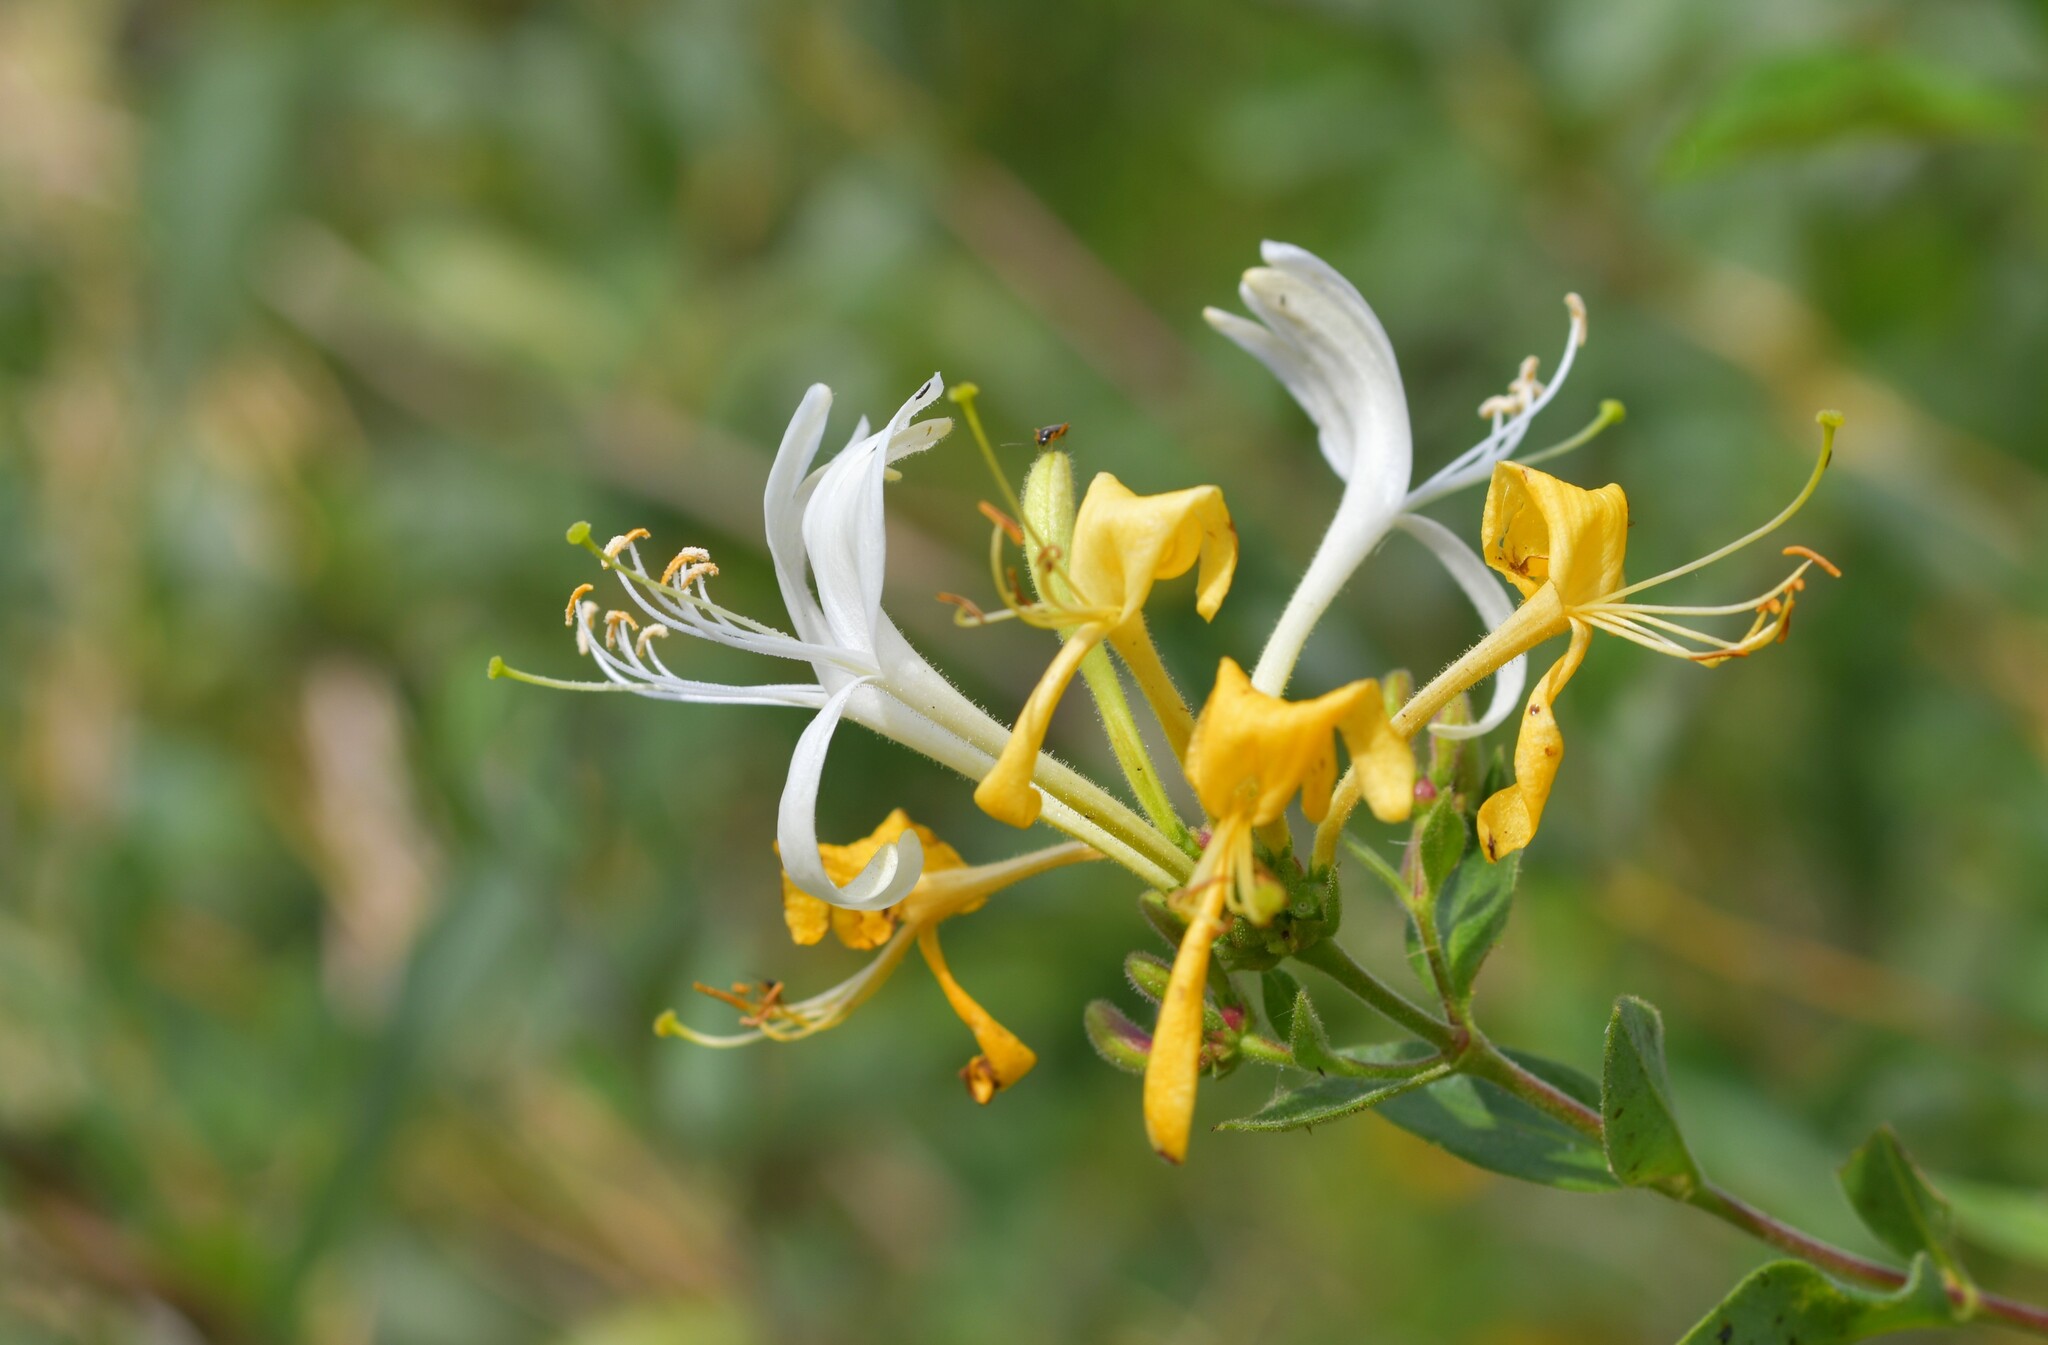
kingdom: Plantae
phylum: Tracheophyta
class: Magnoliopsida
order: Dipsacales
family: Caprifoliaceae
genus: Lonicera
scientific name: Lonicera periclymenum
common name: European honeysuckle
